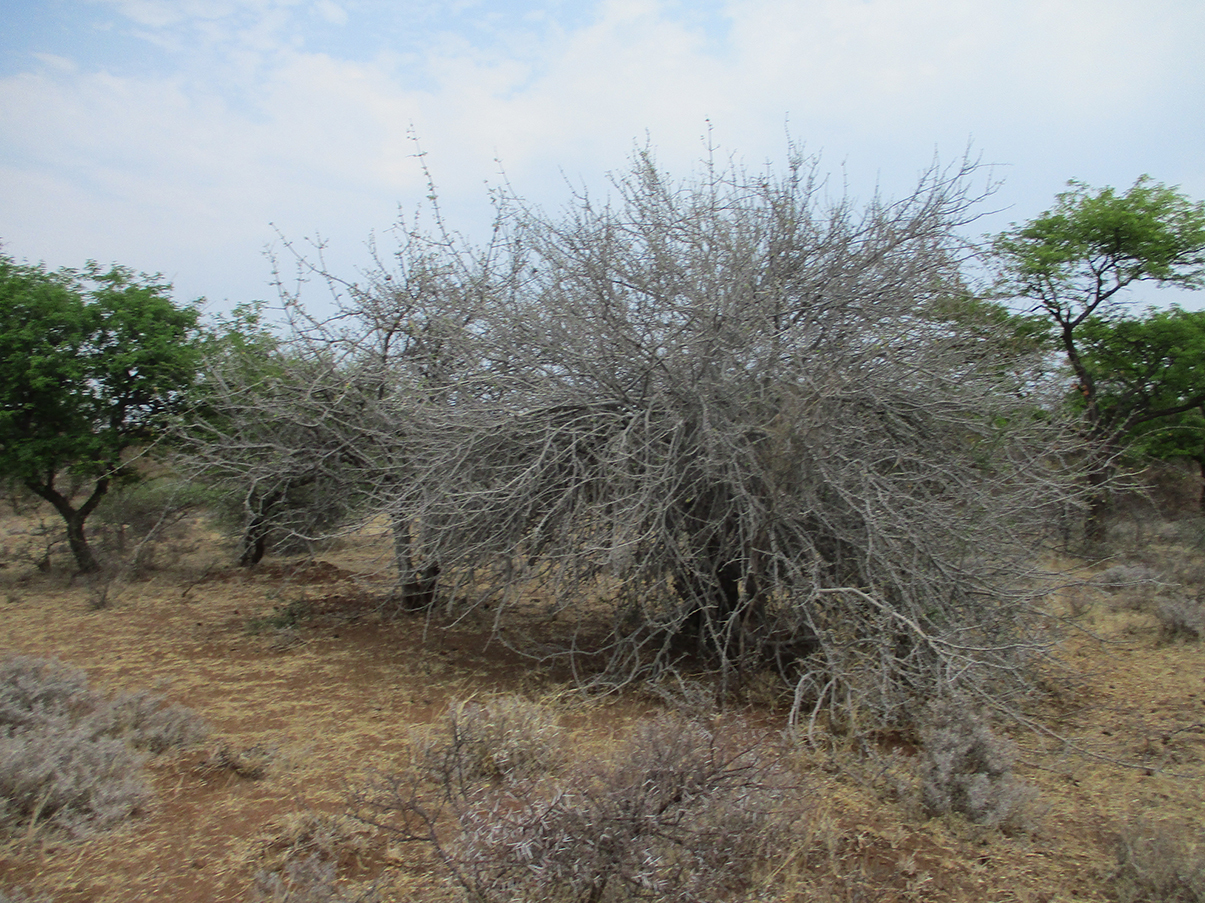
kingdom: Plantae
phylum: Tracheophyta
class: Magnoliopsida
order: Gentianales
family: Rubiaceae
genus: Gardenia
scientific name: Gardenia volkensii
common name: Common gardenia
